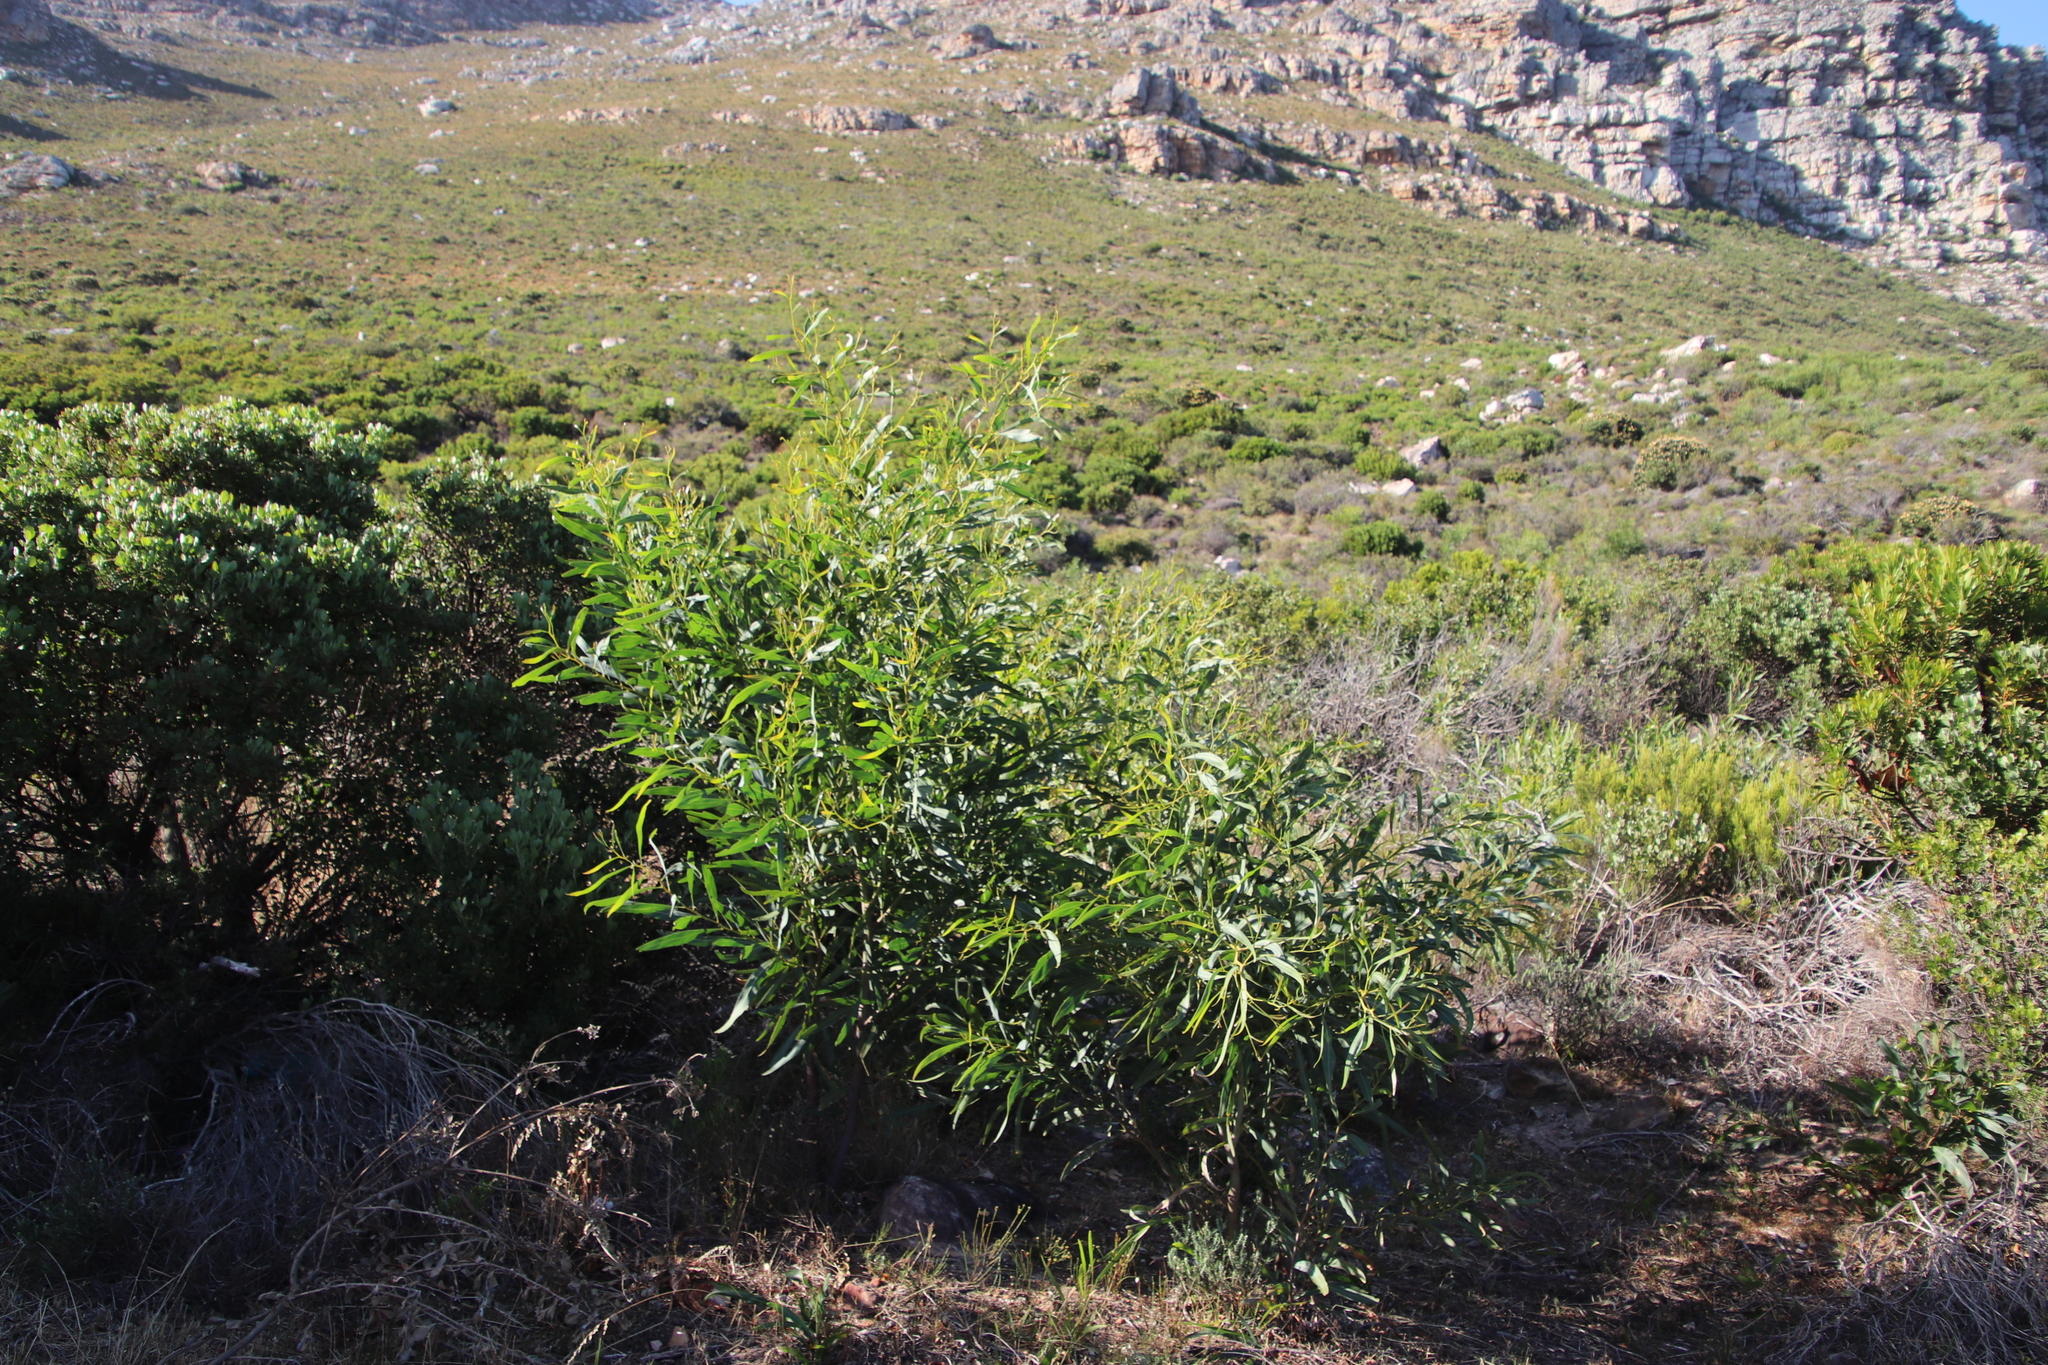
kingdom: Plantae
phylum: Tracheophyta
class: Magnoliopsida
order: Fabales
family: Fabaceae
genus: Acacia
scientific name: Acacia saligna
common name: Orange wattle
